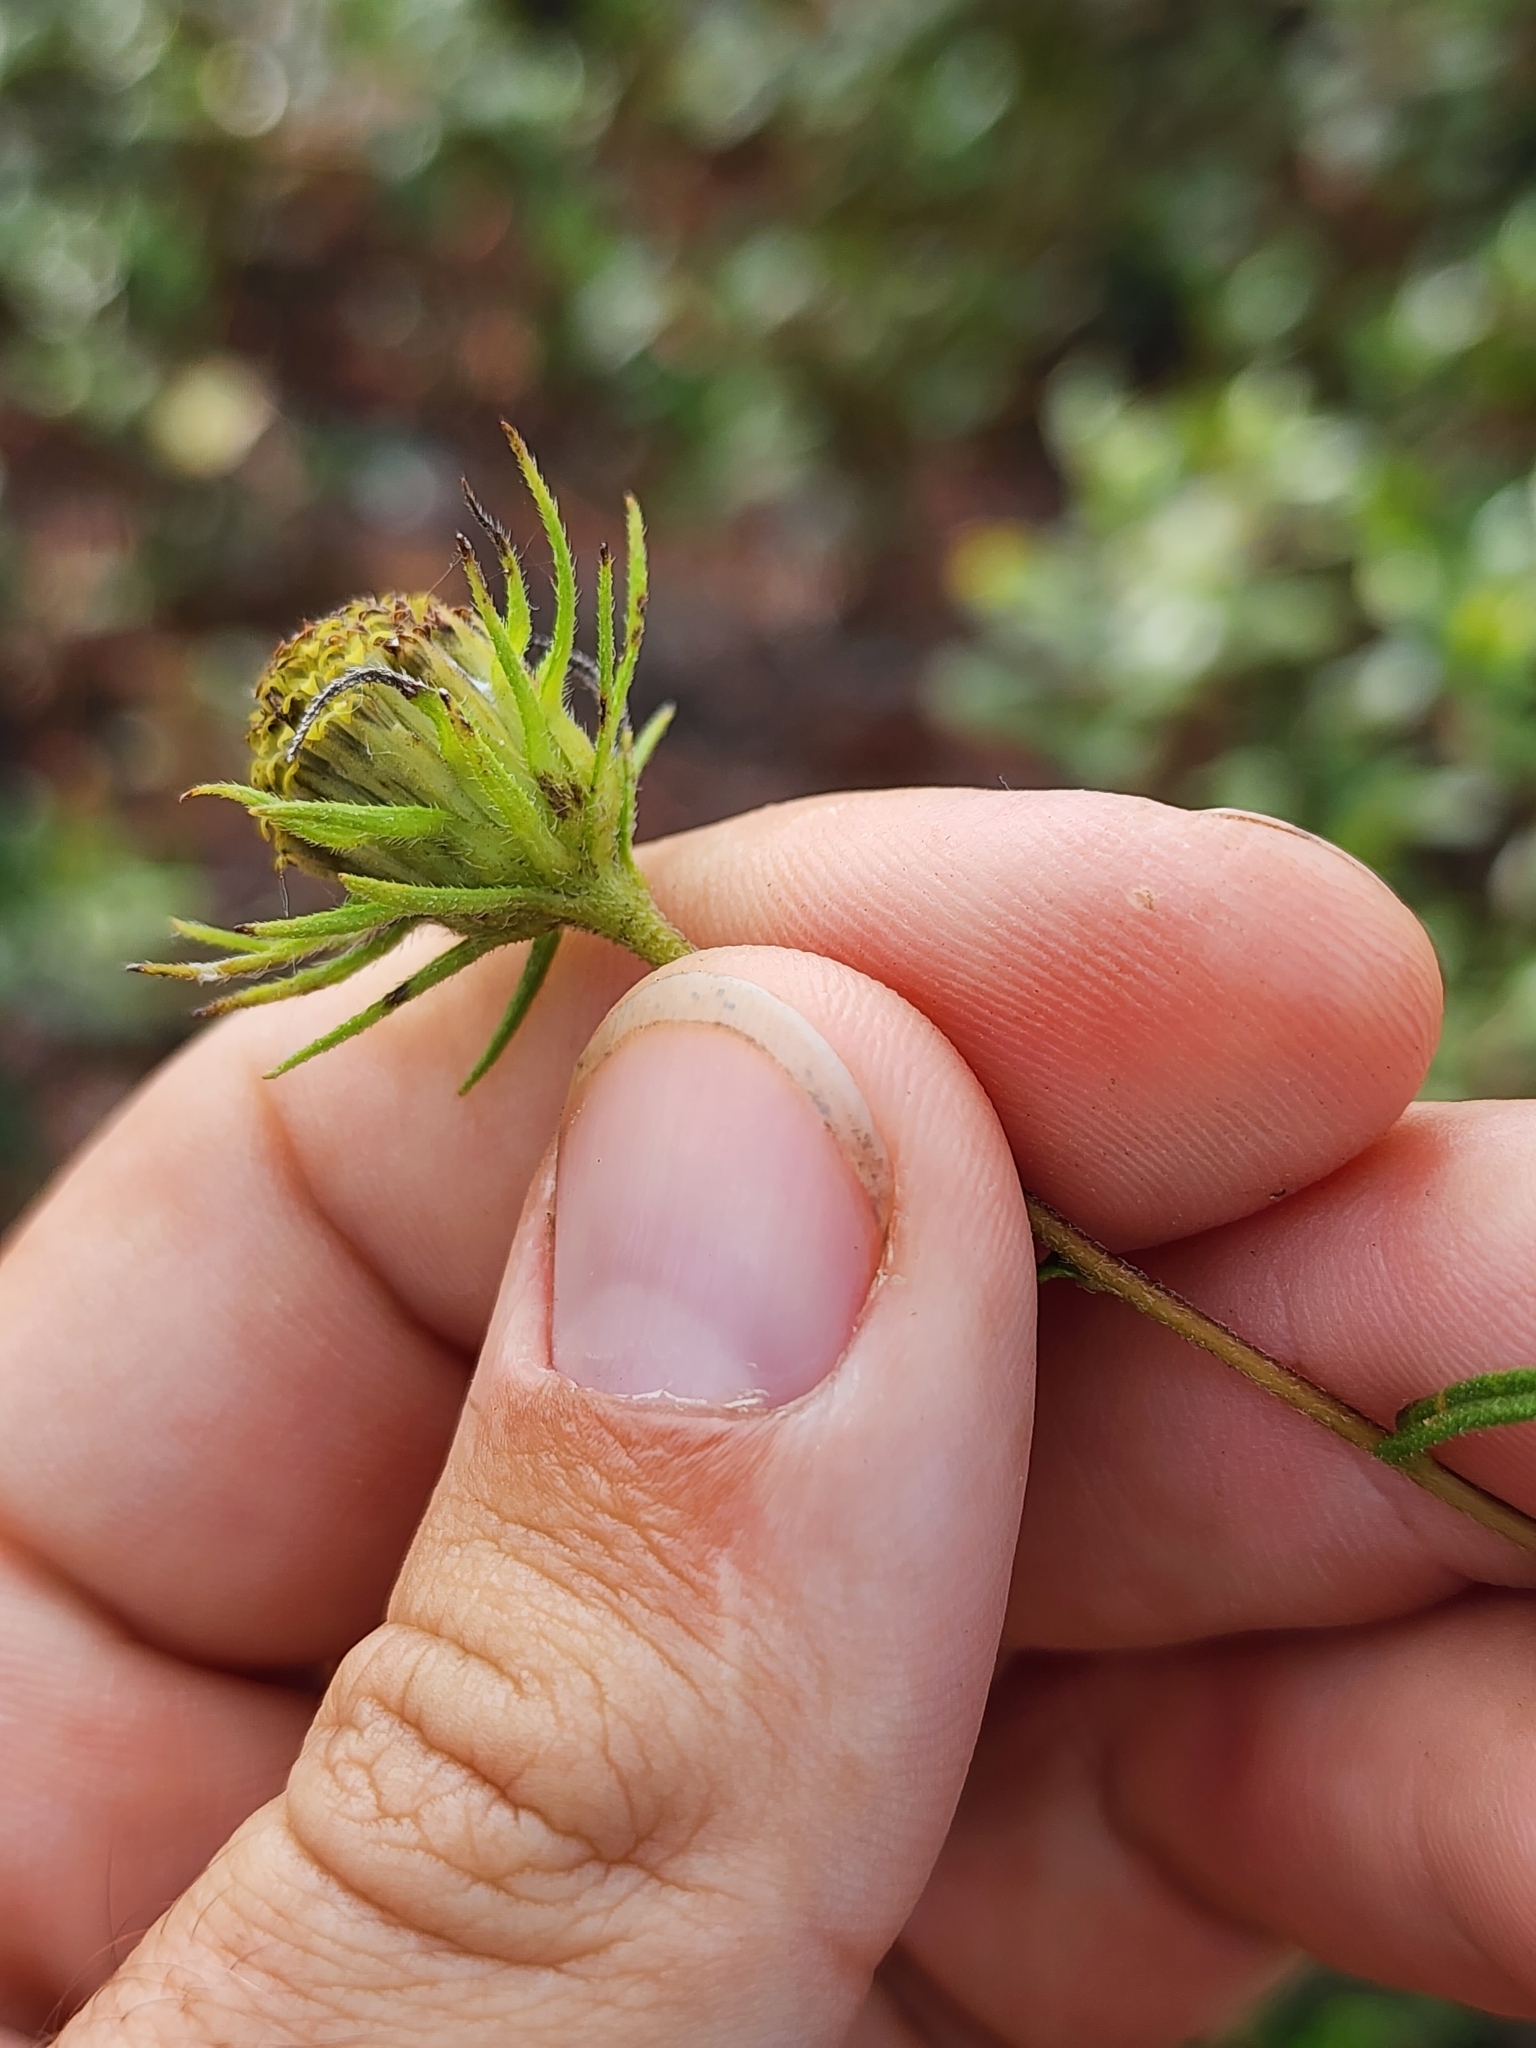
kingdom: Plantae
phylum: Tracheophyta
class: Magnoliopsida
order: Asterales
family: Asteraceae
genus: Phoebanthus
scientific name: Phoebanthus tenuifolia
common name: Pineland false sunflower
